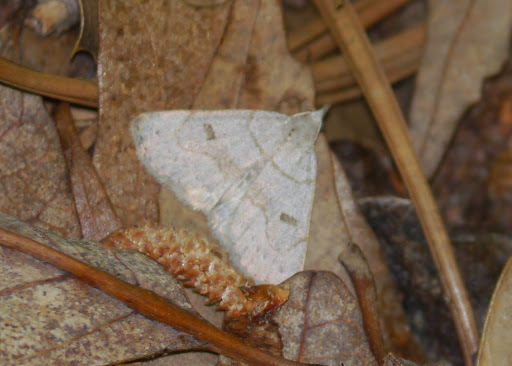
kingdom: Animalia
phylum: Arthropoda
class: Insecta
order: Lepidoptera
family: Erebidae
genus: Macrochilo
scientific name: Macrochilo morbidalis
